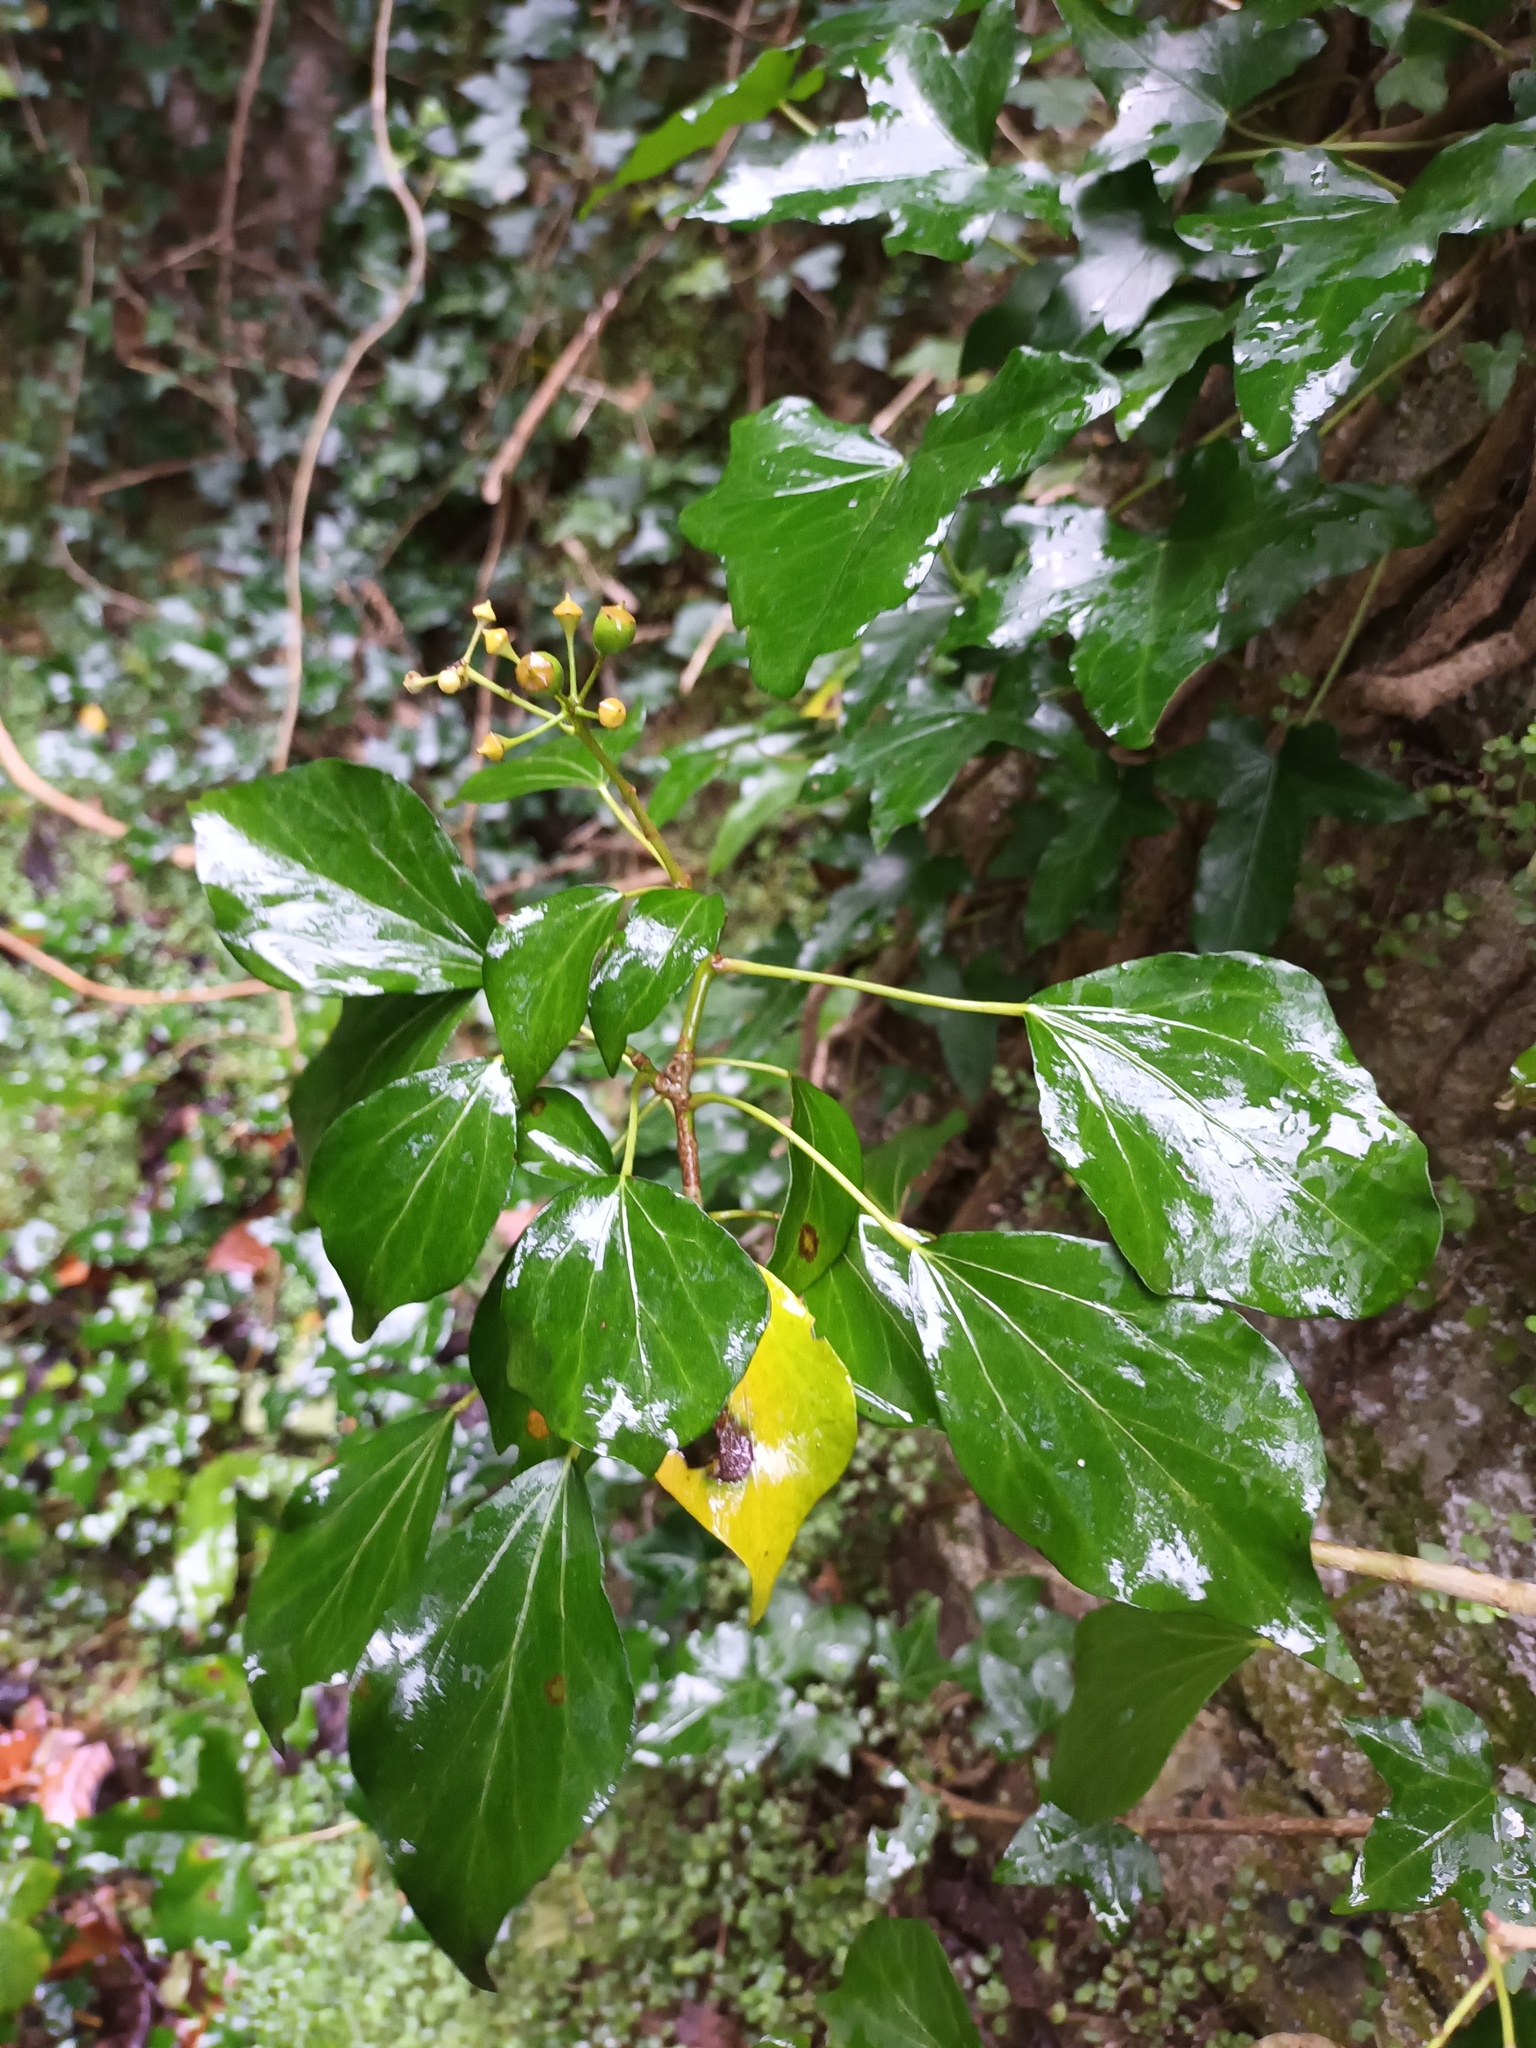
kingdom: Plantae
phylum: Tracheophyta
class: Magnoliopsida
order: Apiales
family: Araliaceae
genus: Hedera
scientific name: Hedera helix
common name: Ivy
